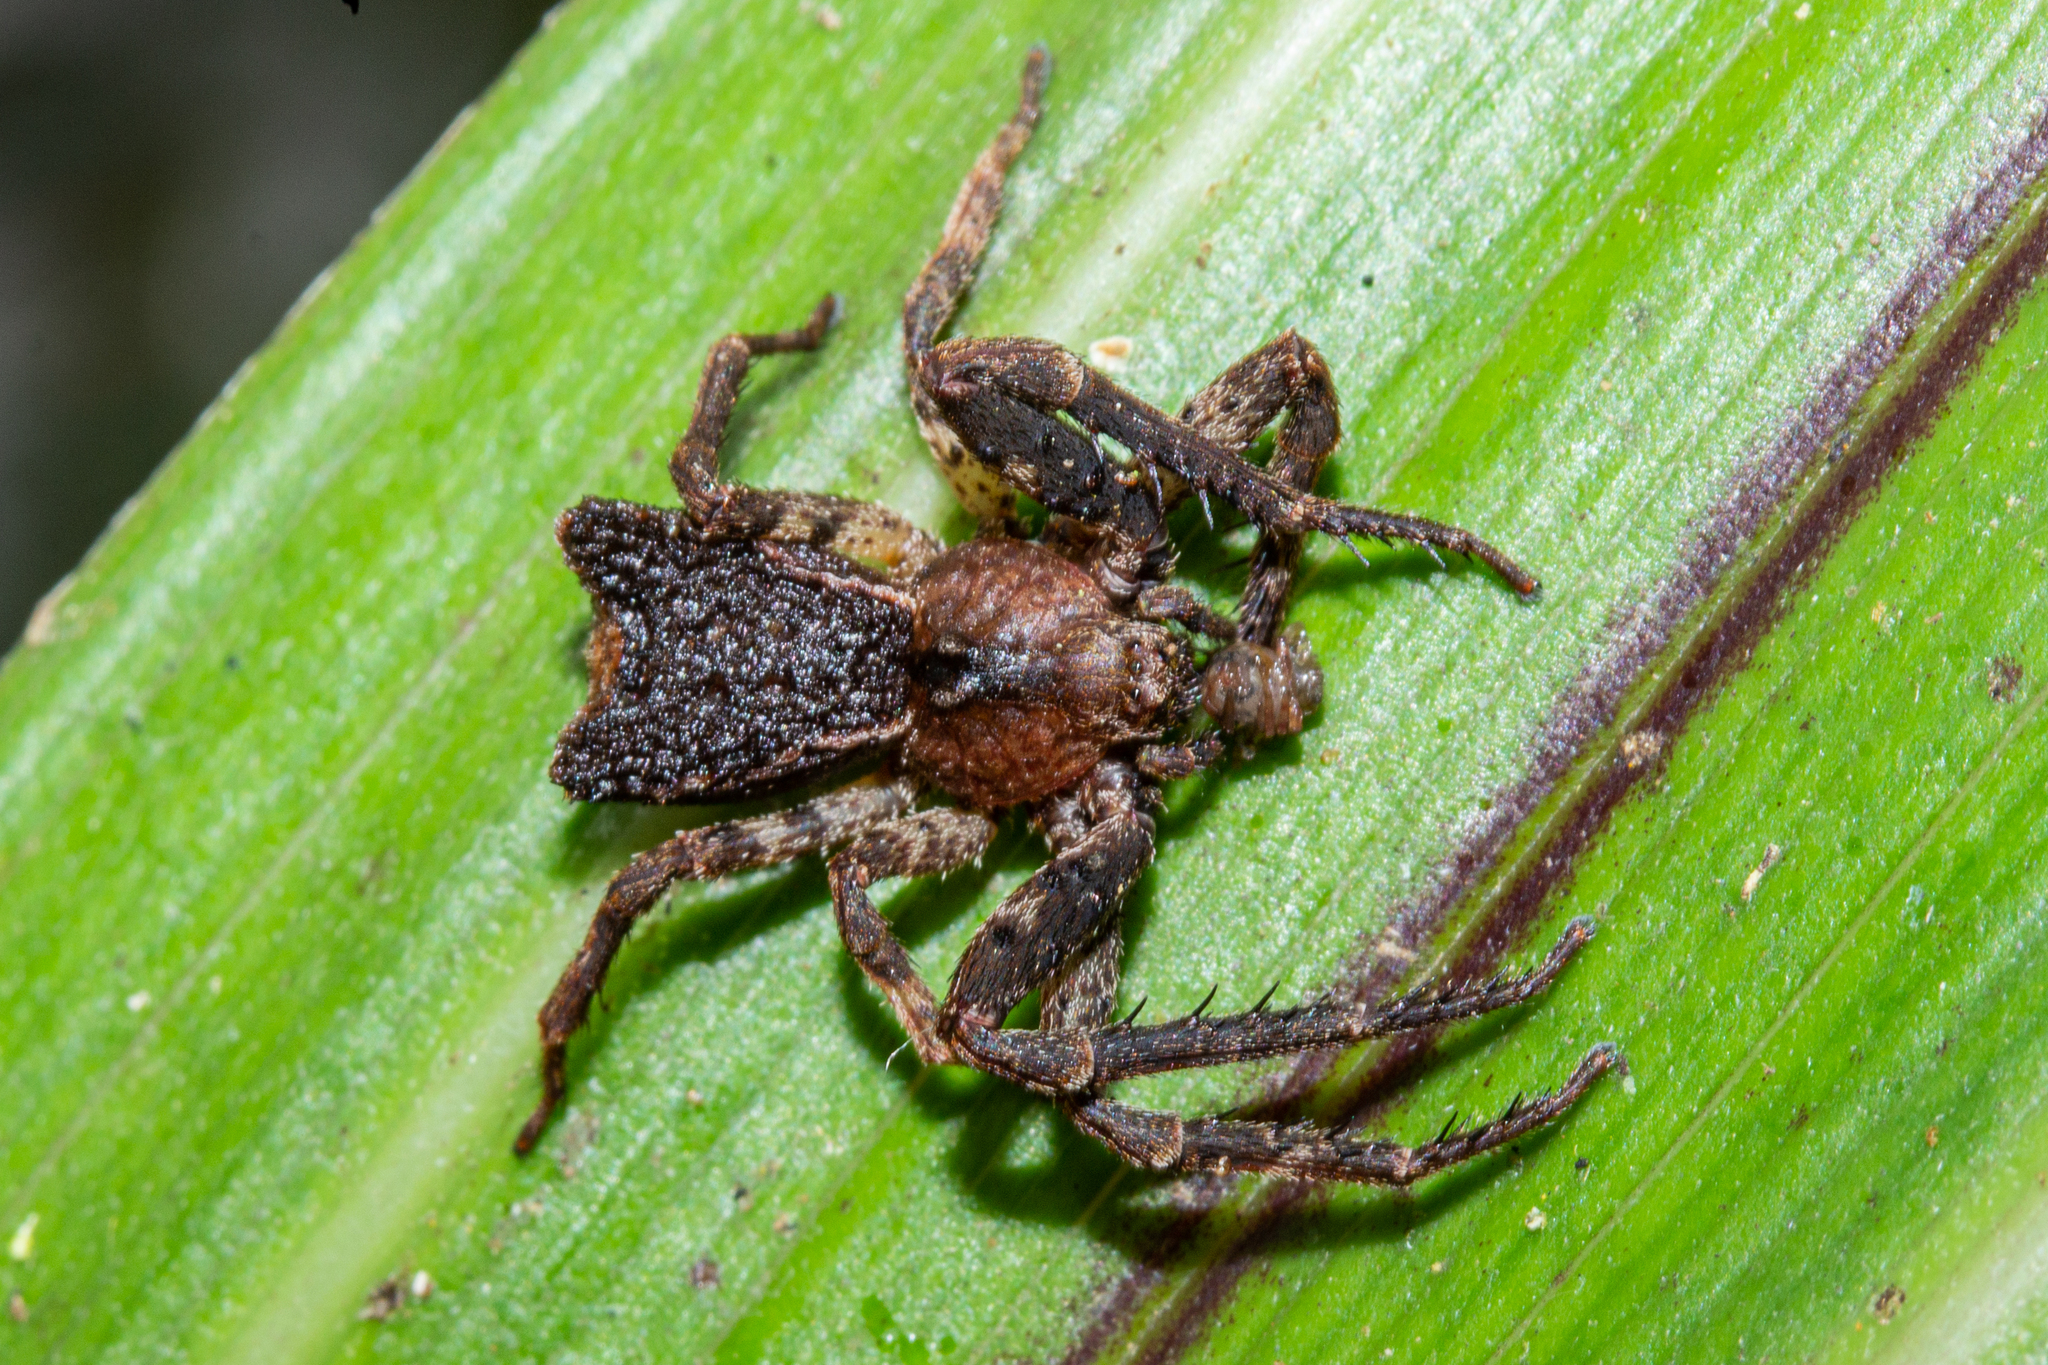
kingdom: Animalia
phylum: Arthropoda
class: Arachnida
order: Araneae
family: Thomisidae
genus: Sidymella
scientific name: Sidymella angularis
